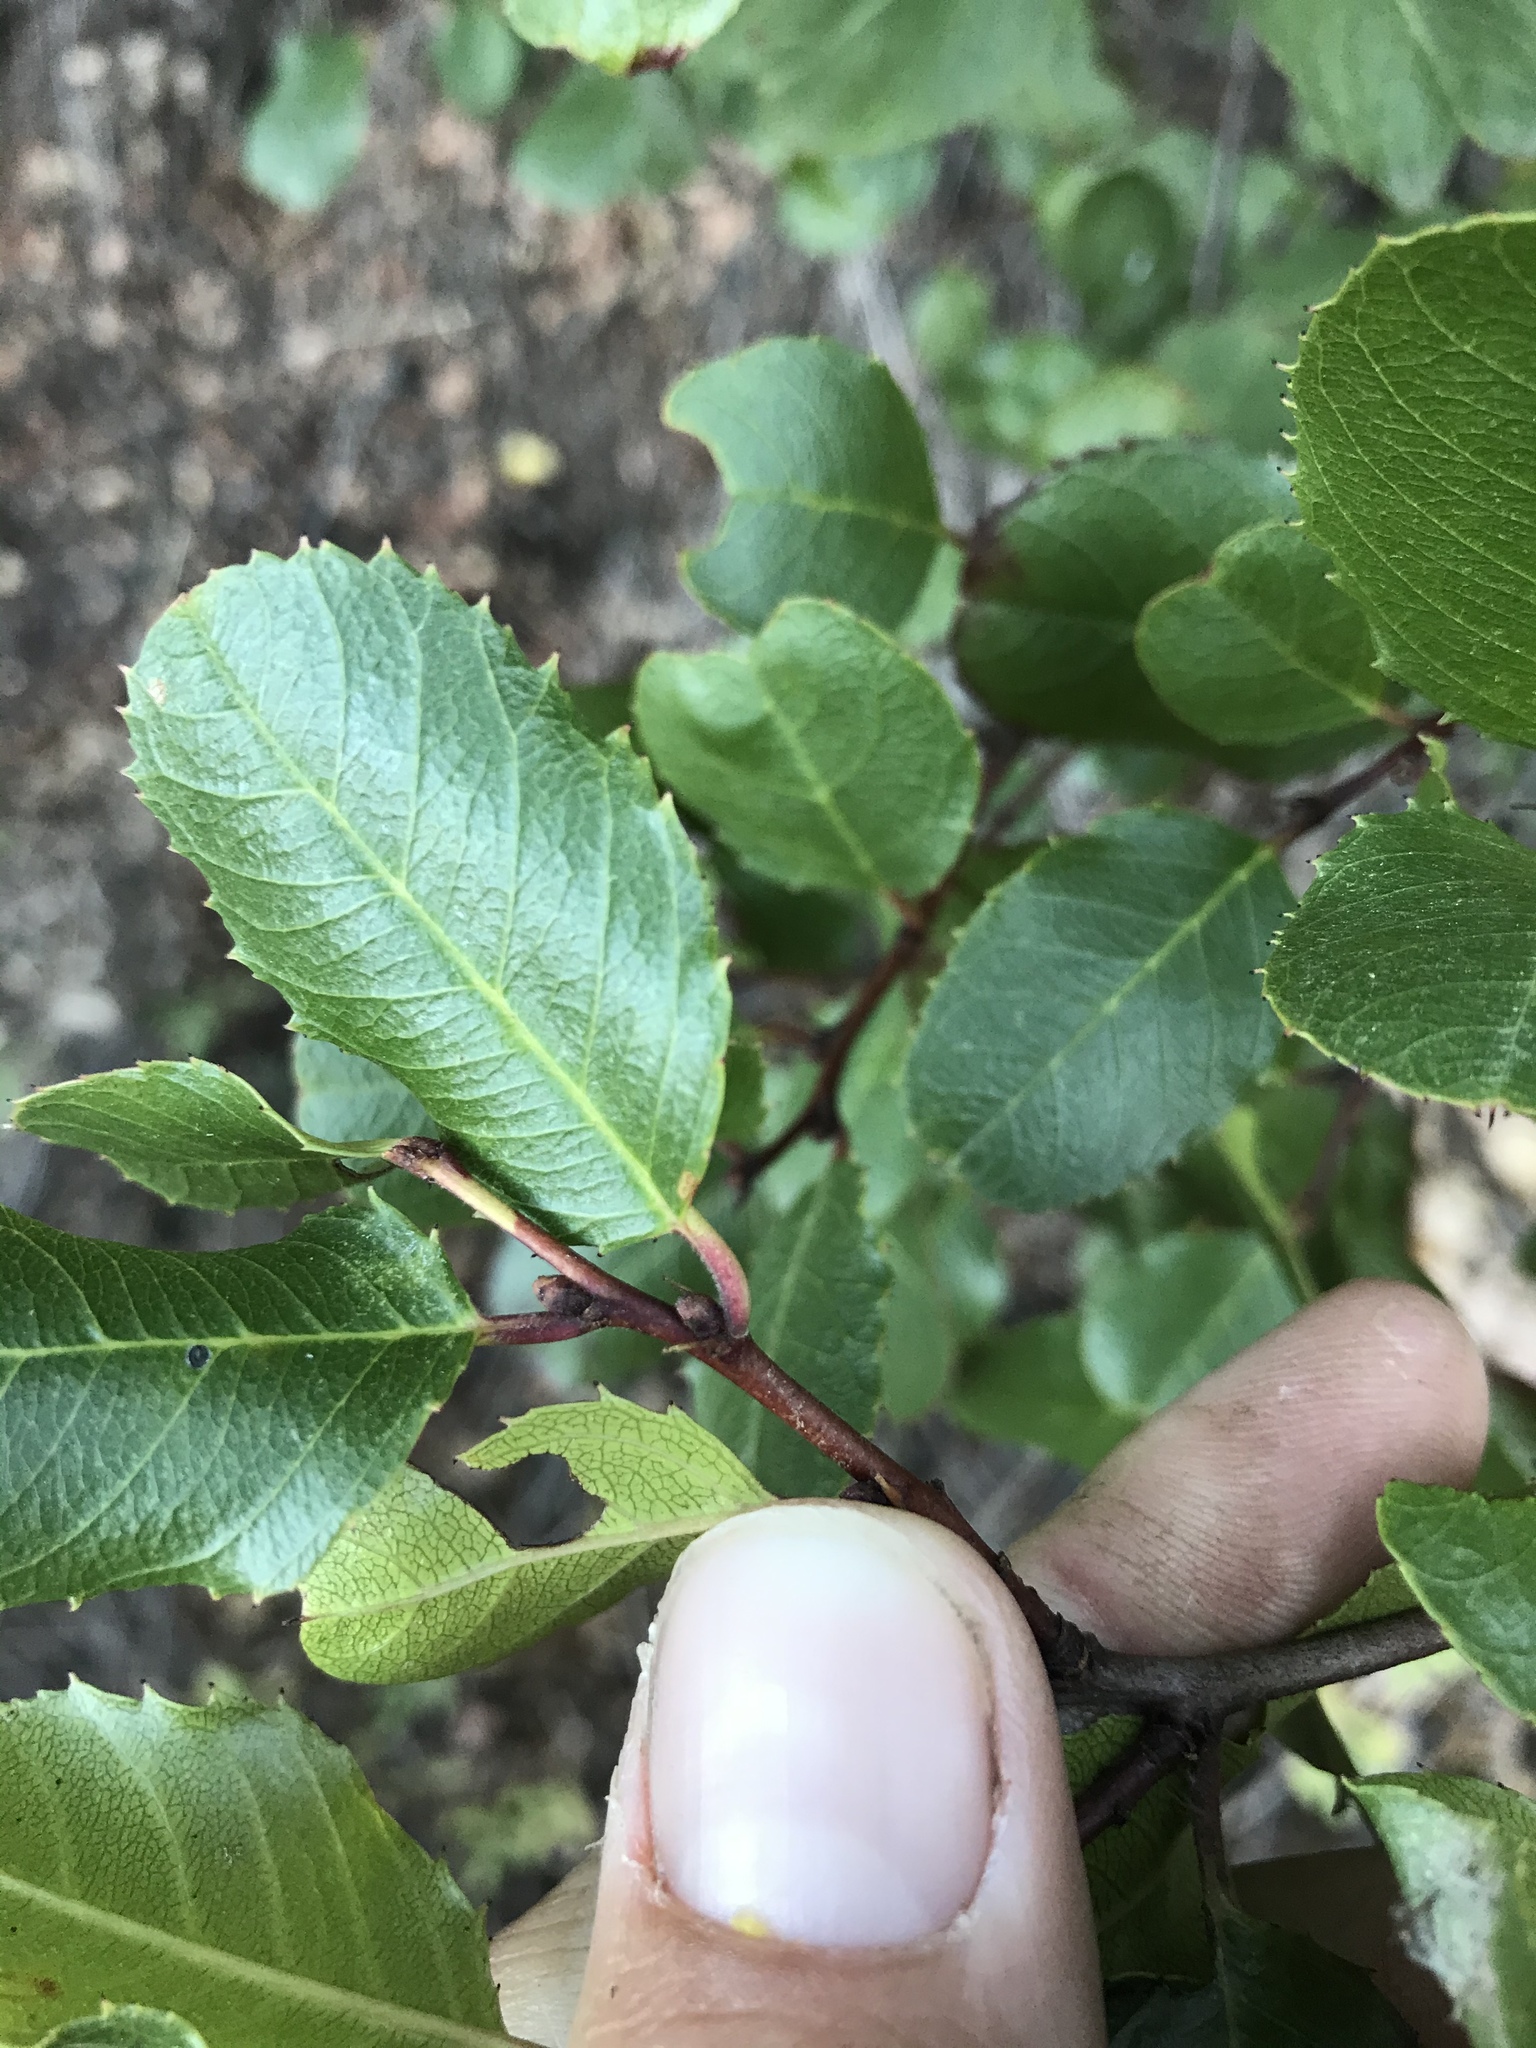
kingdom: Plantae
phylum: Tracheophyta
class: Magnoliopsida
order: Rosales
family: Rhamnaceae
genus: Endotropis
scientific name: Endotropis crocea
